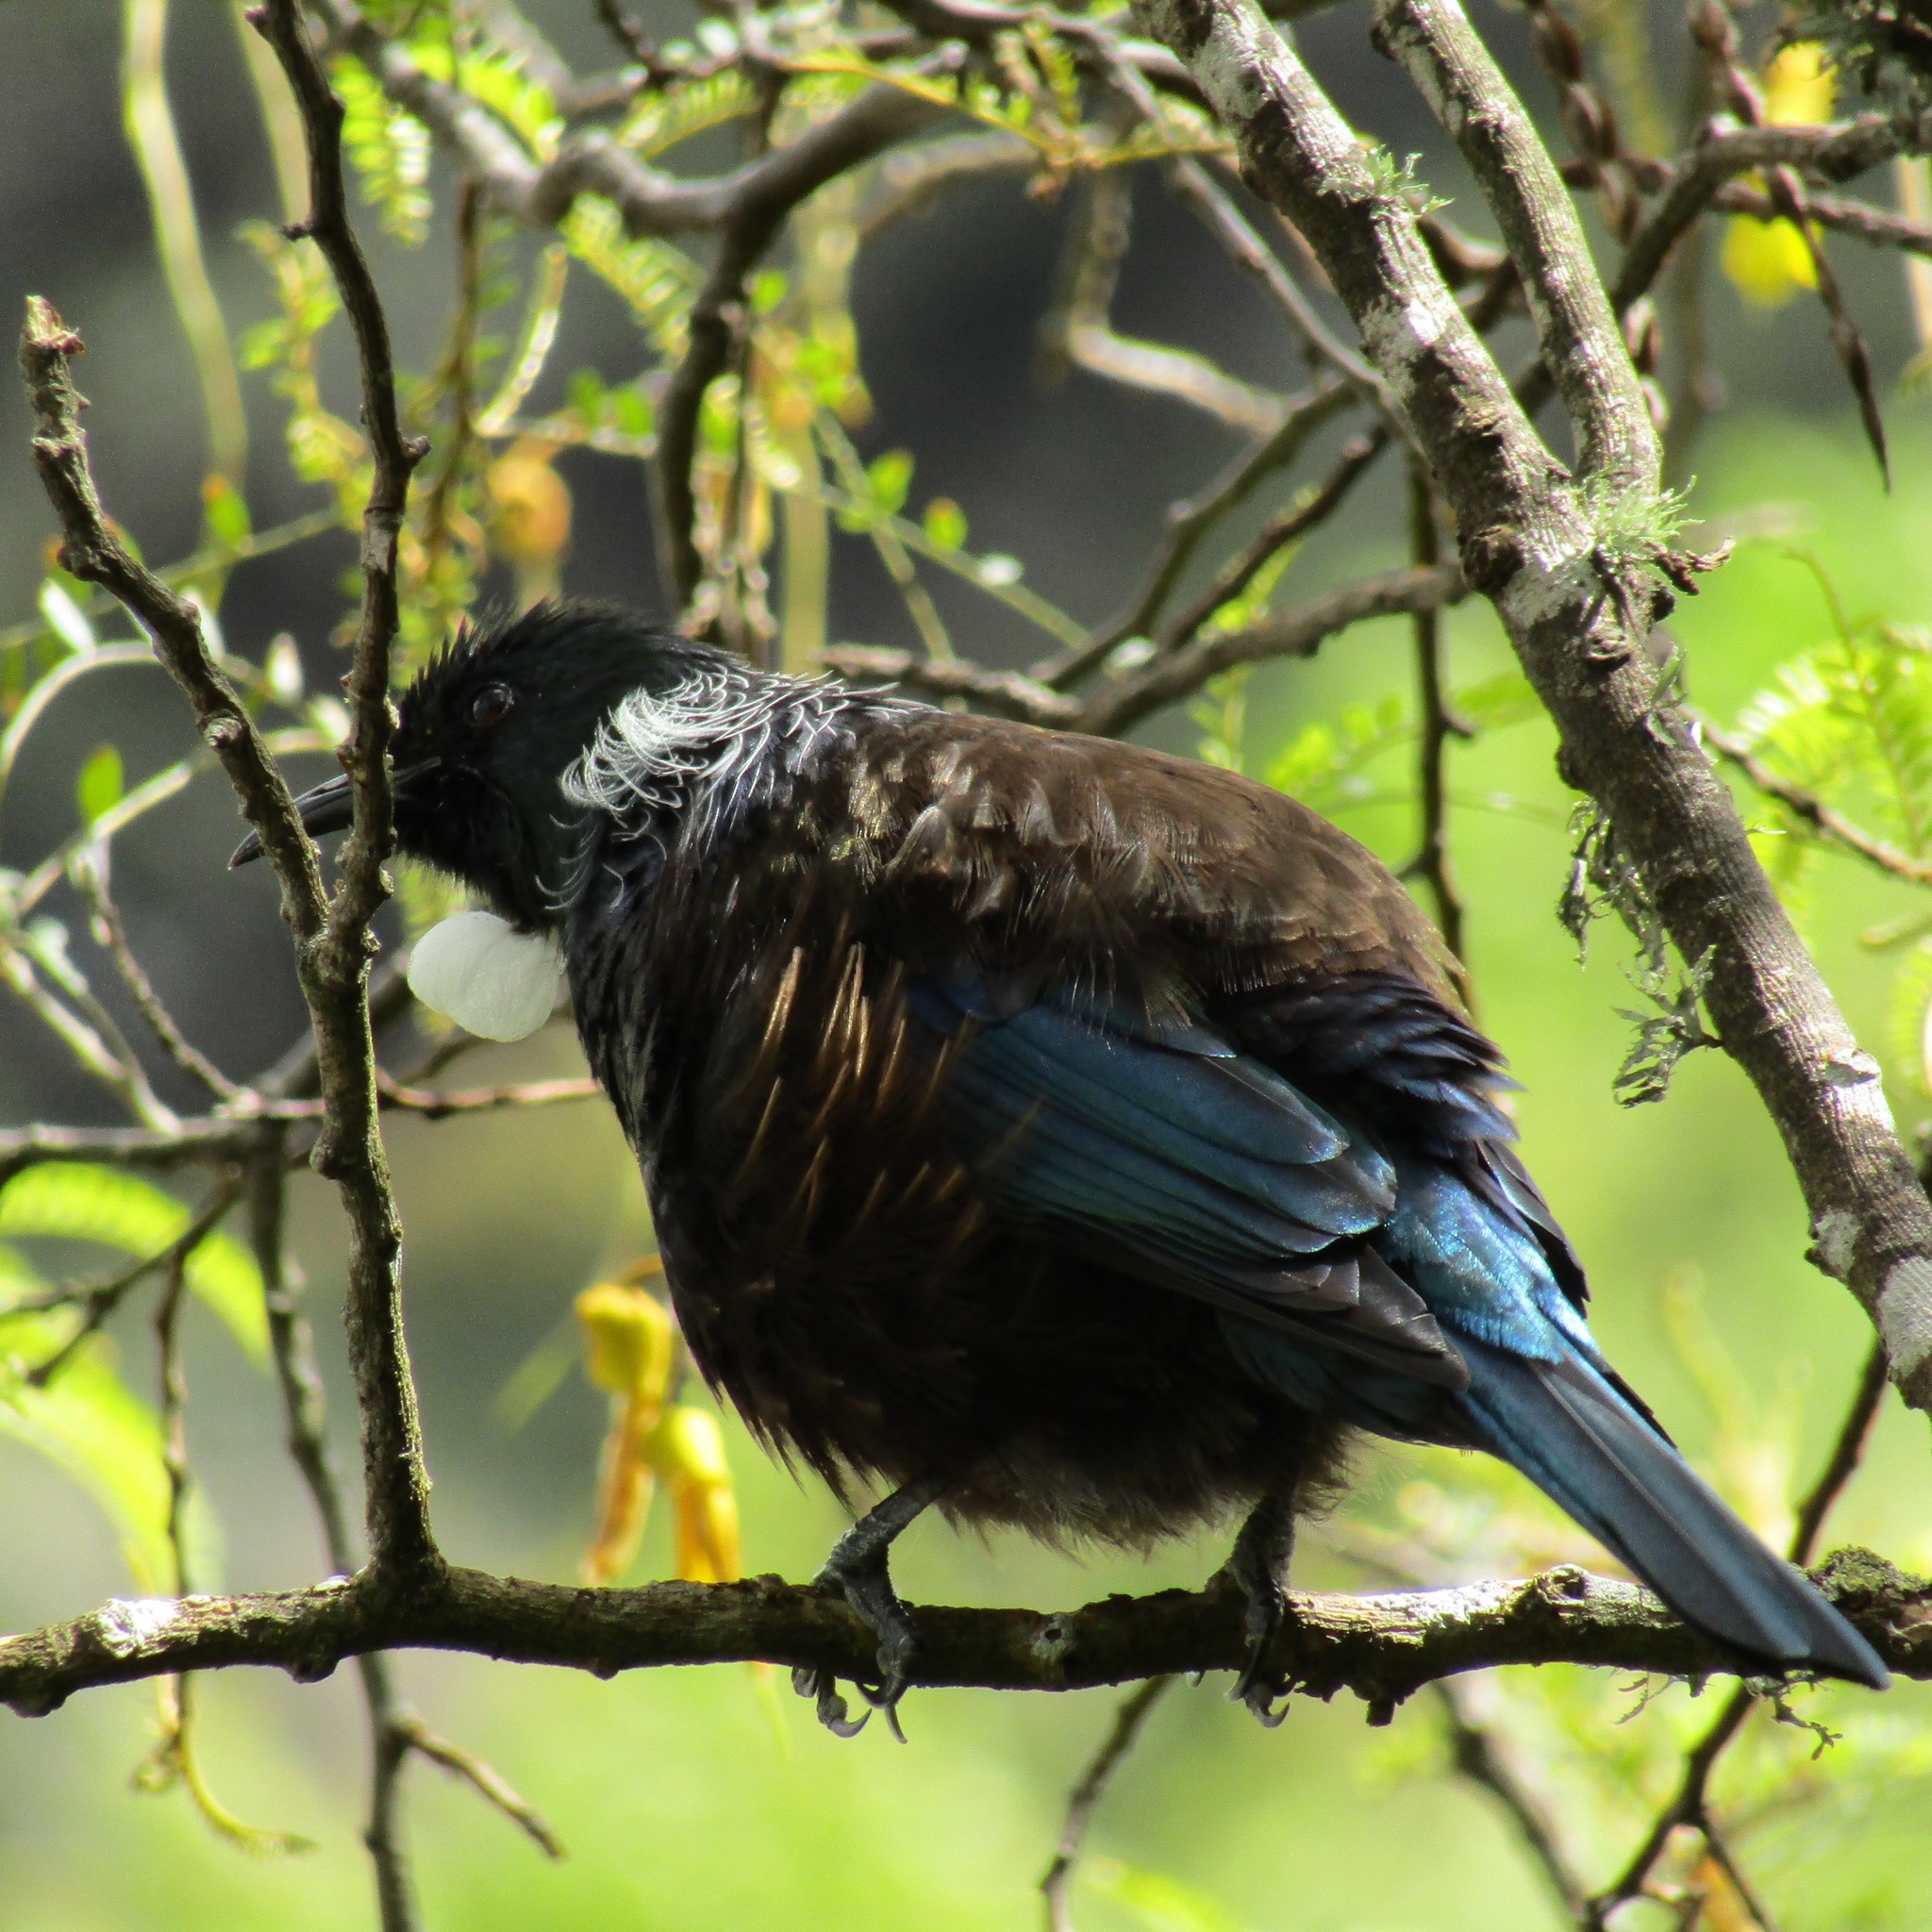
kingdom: Animalia
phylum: Chordata
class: Aves
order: Passeriformes
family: Meliphagidae
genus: Prosthemadera
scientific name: Prosthemadera novaeseelandiae
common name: Tui
